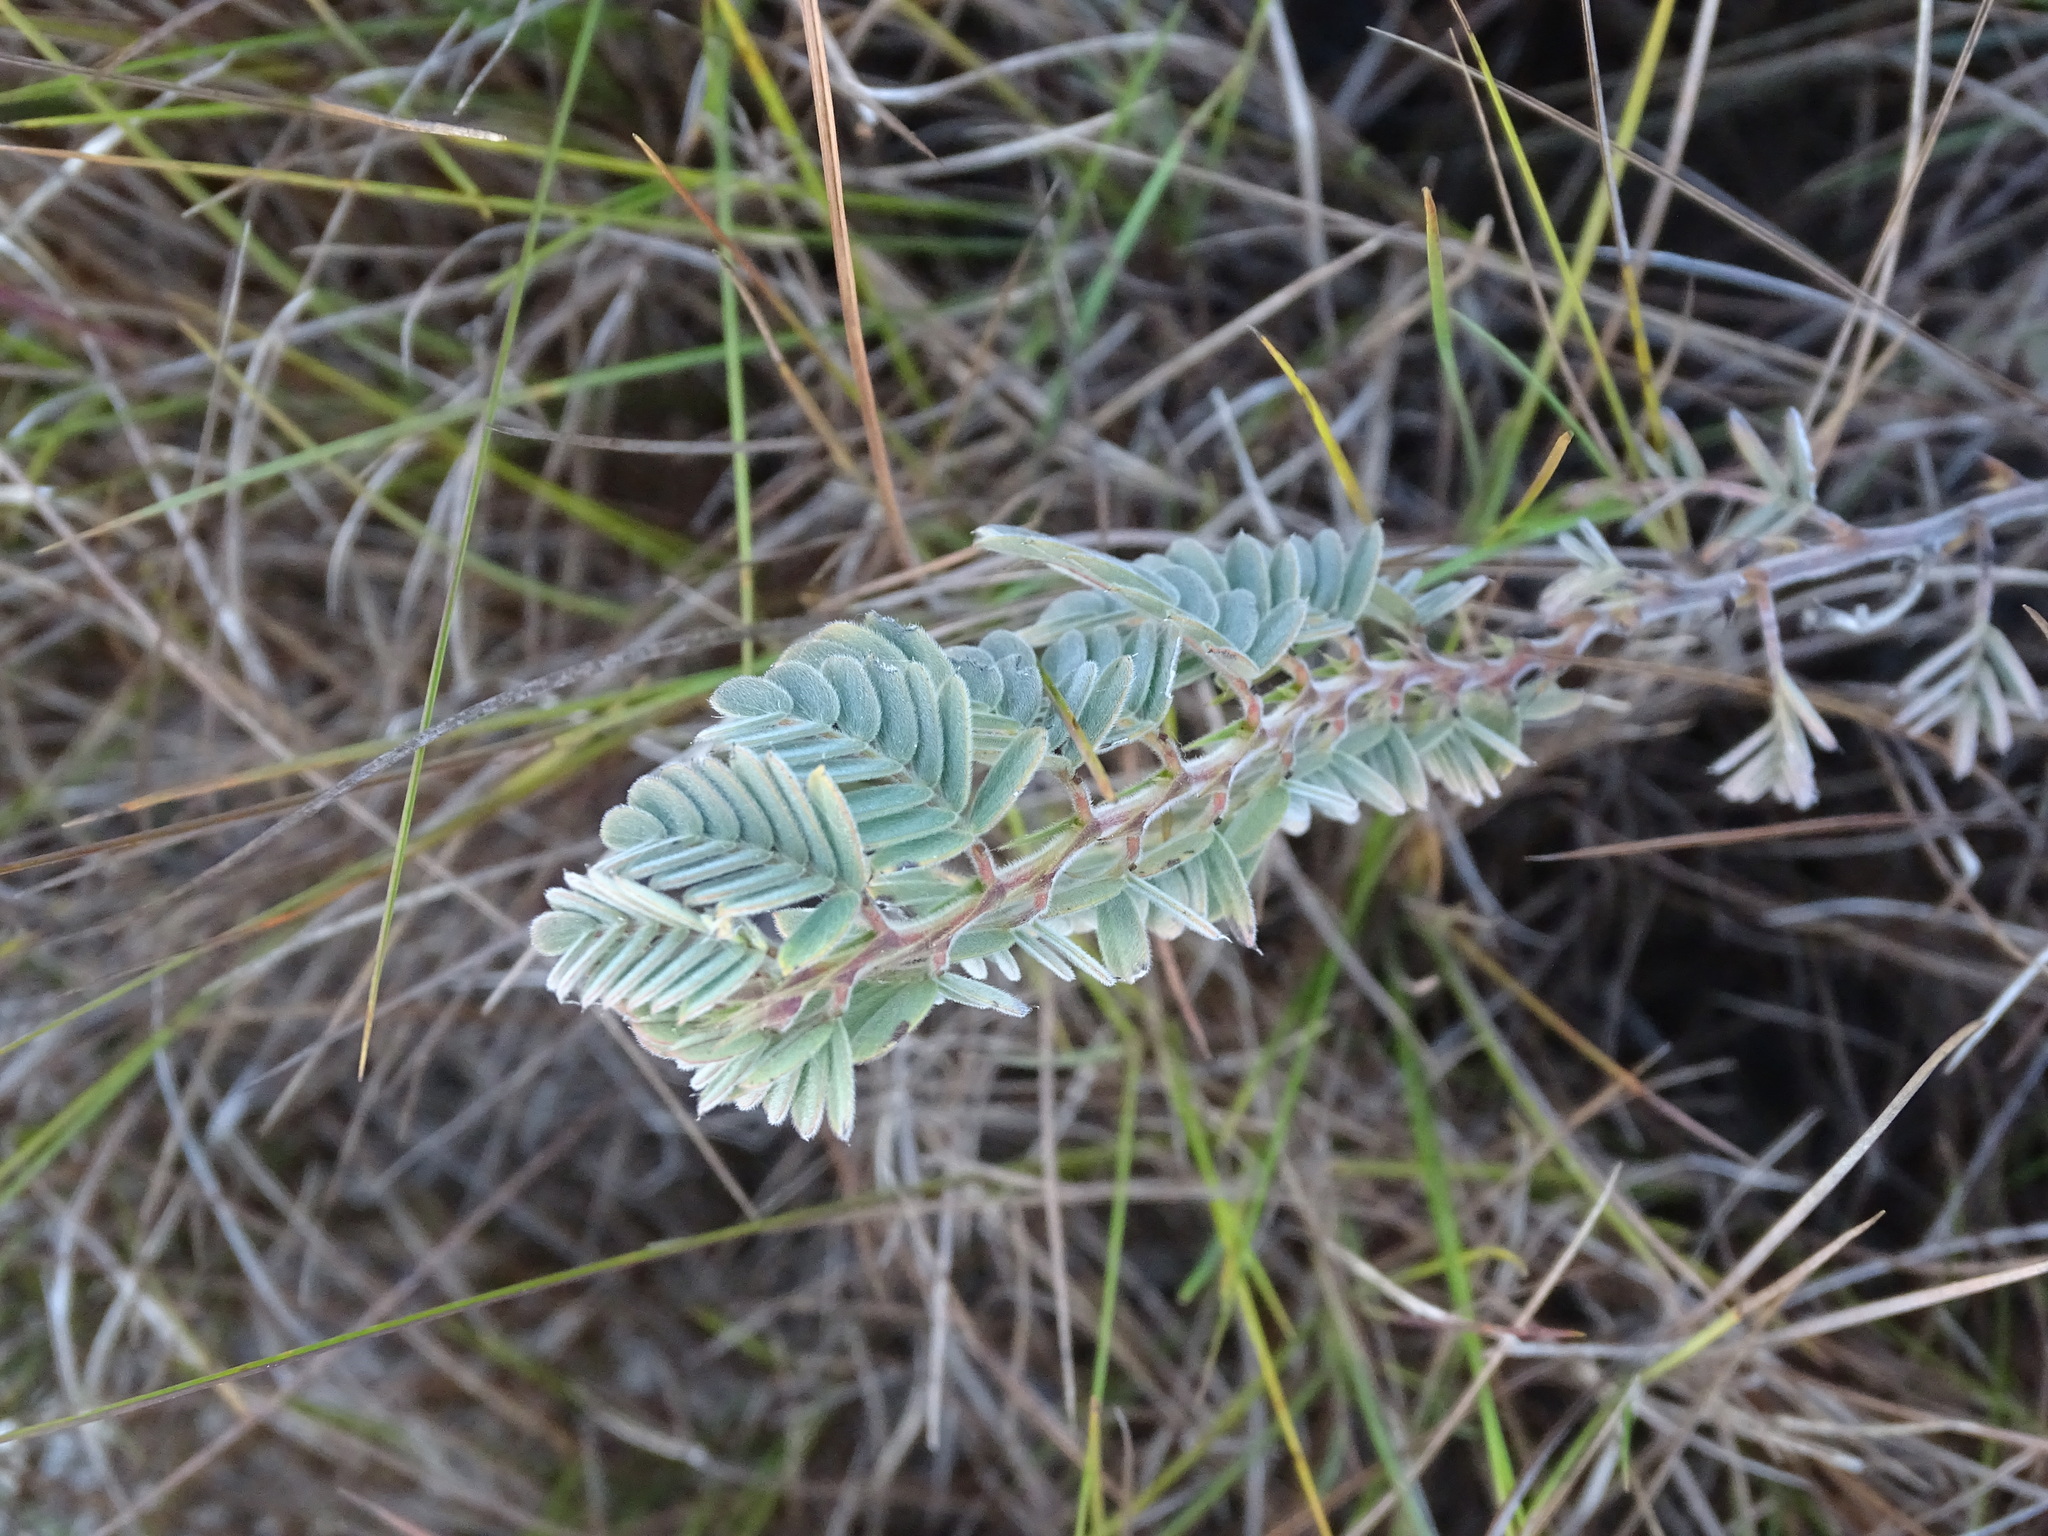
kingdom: Plantae
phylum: Tracheophyta
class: Magnoliopsida
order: Fabales
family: Fabaceae
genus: Chamaecrista
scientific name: Chamaecrista lineata
